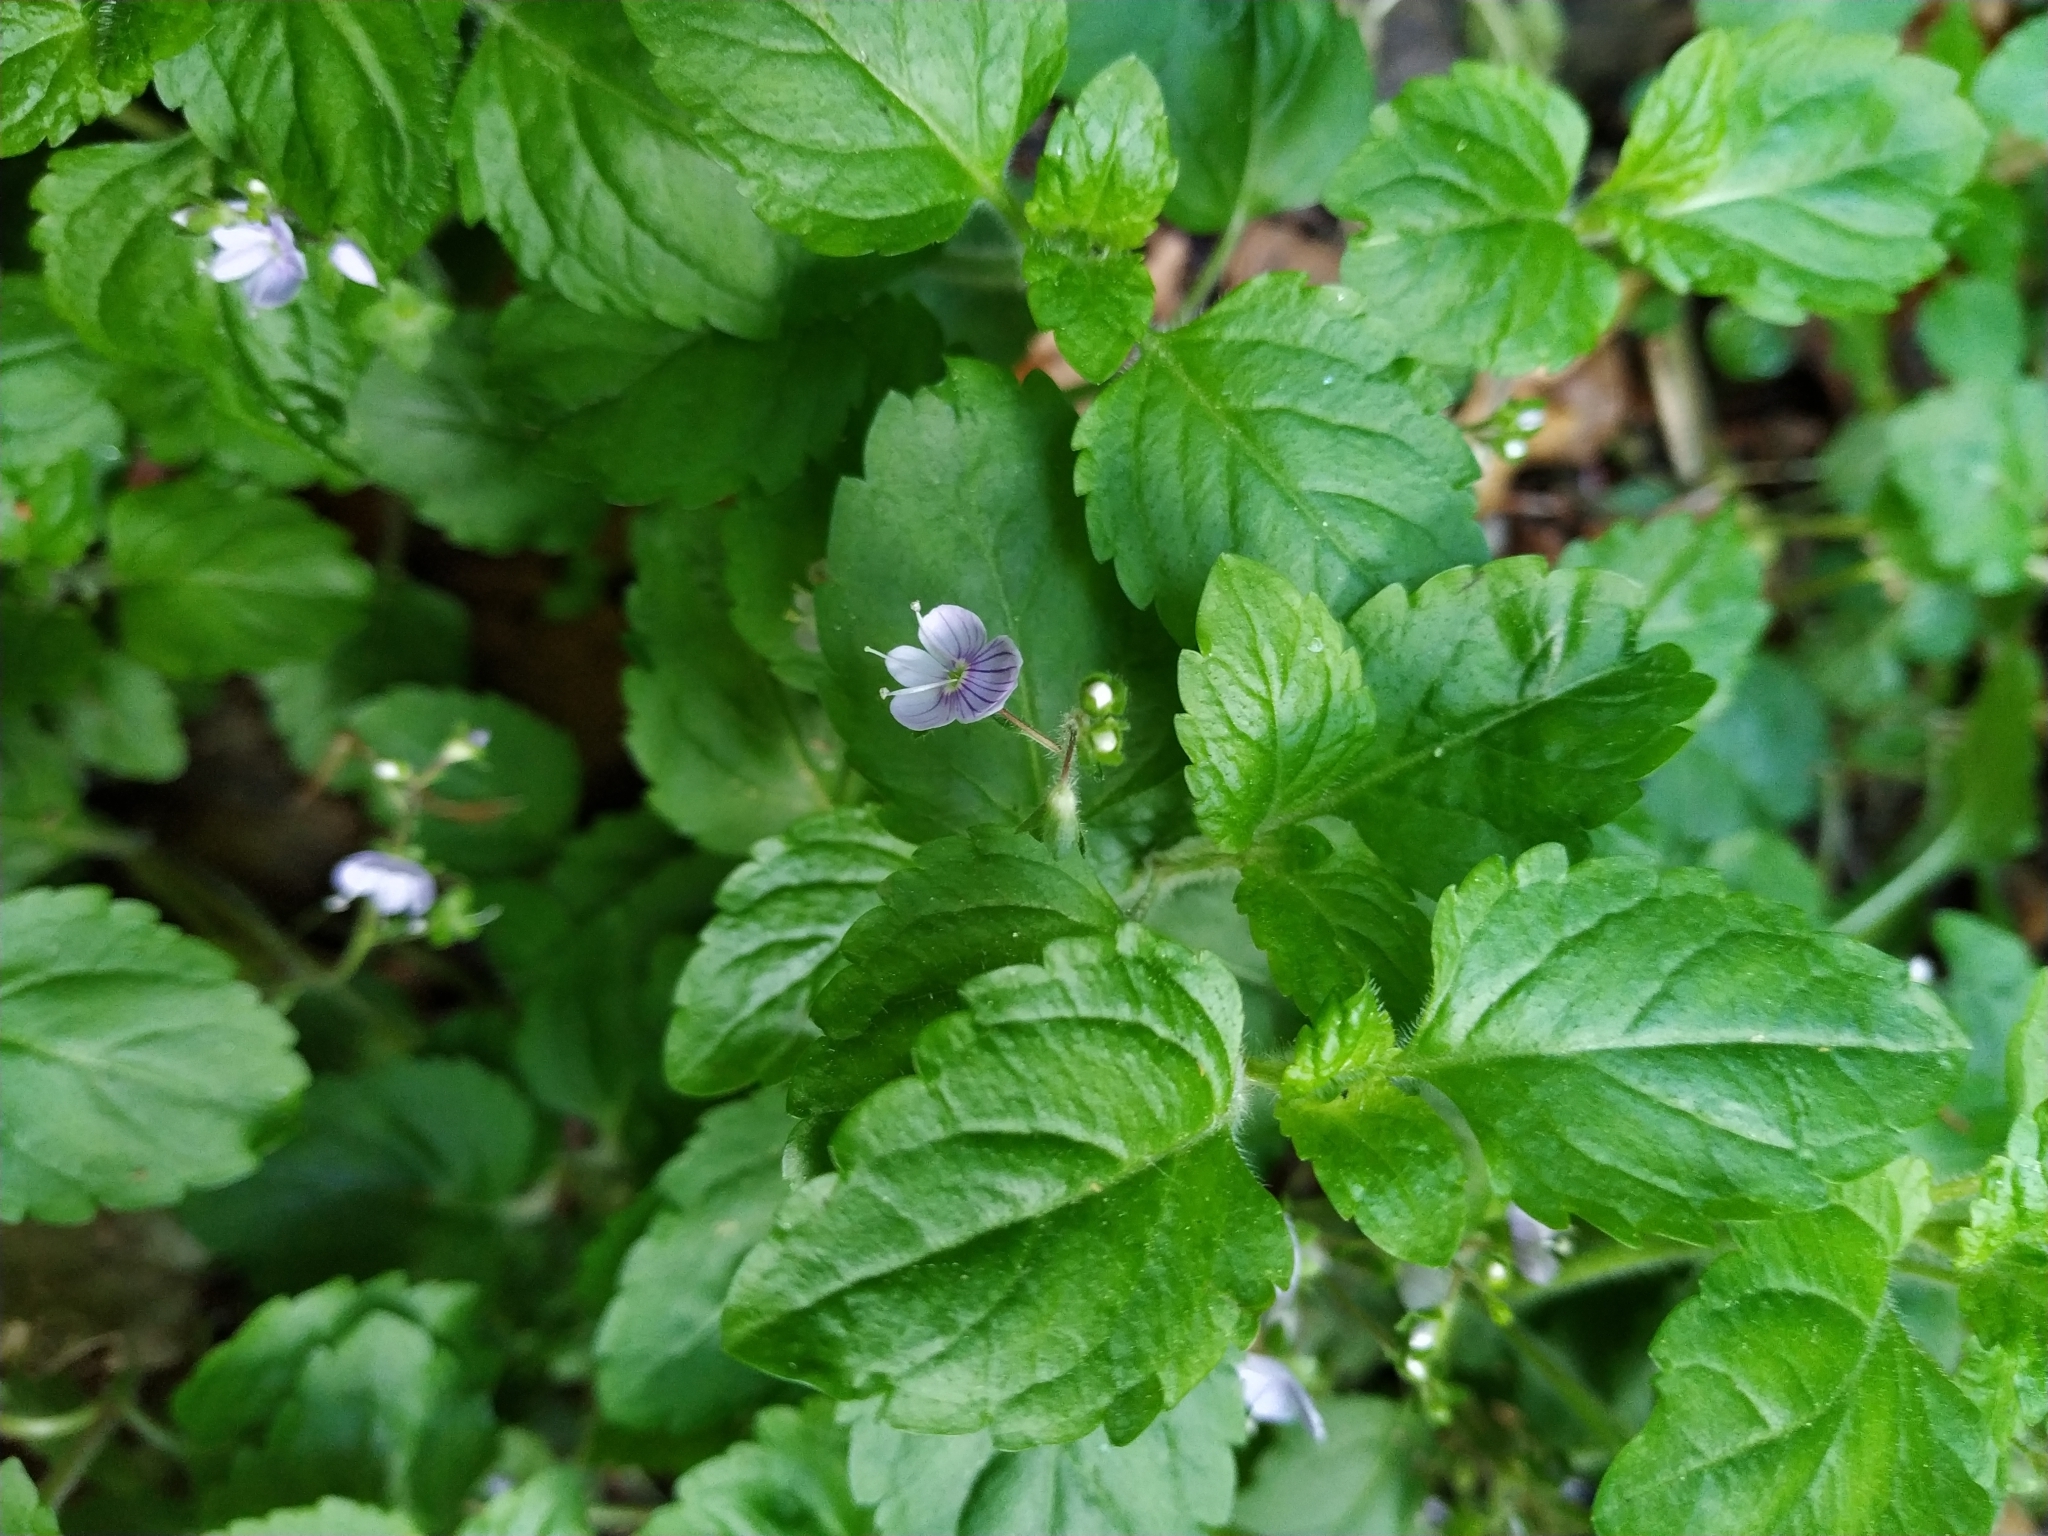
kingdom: Plantae
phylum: Tracheophyta
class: Magnoliopsida
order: Lamiales
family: Plantaginaceae
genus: Veronica
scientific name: Veronica montana
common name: Wood speedwell
